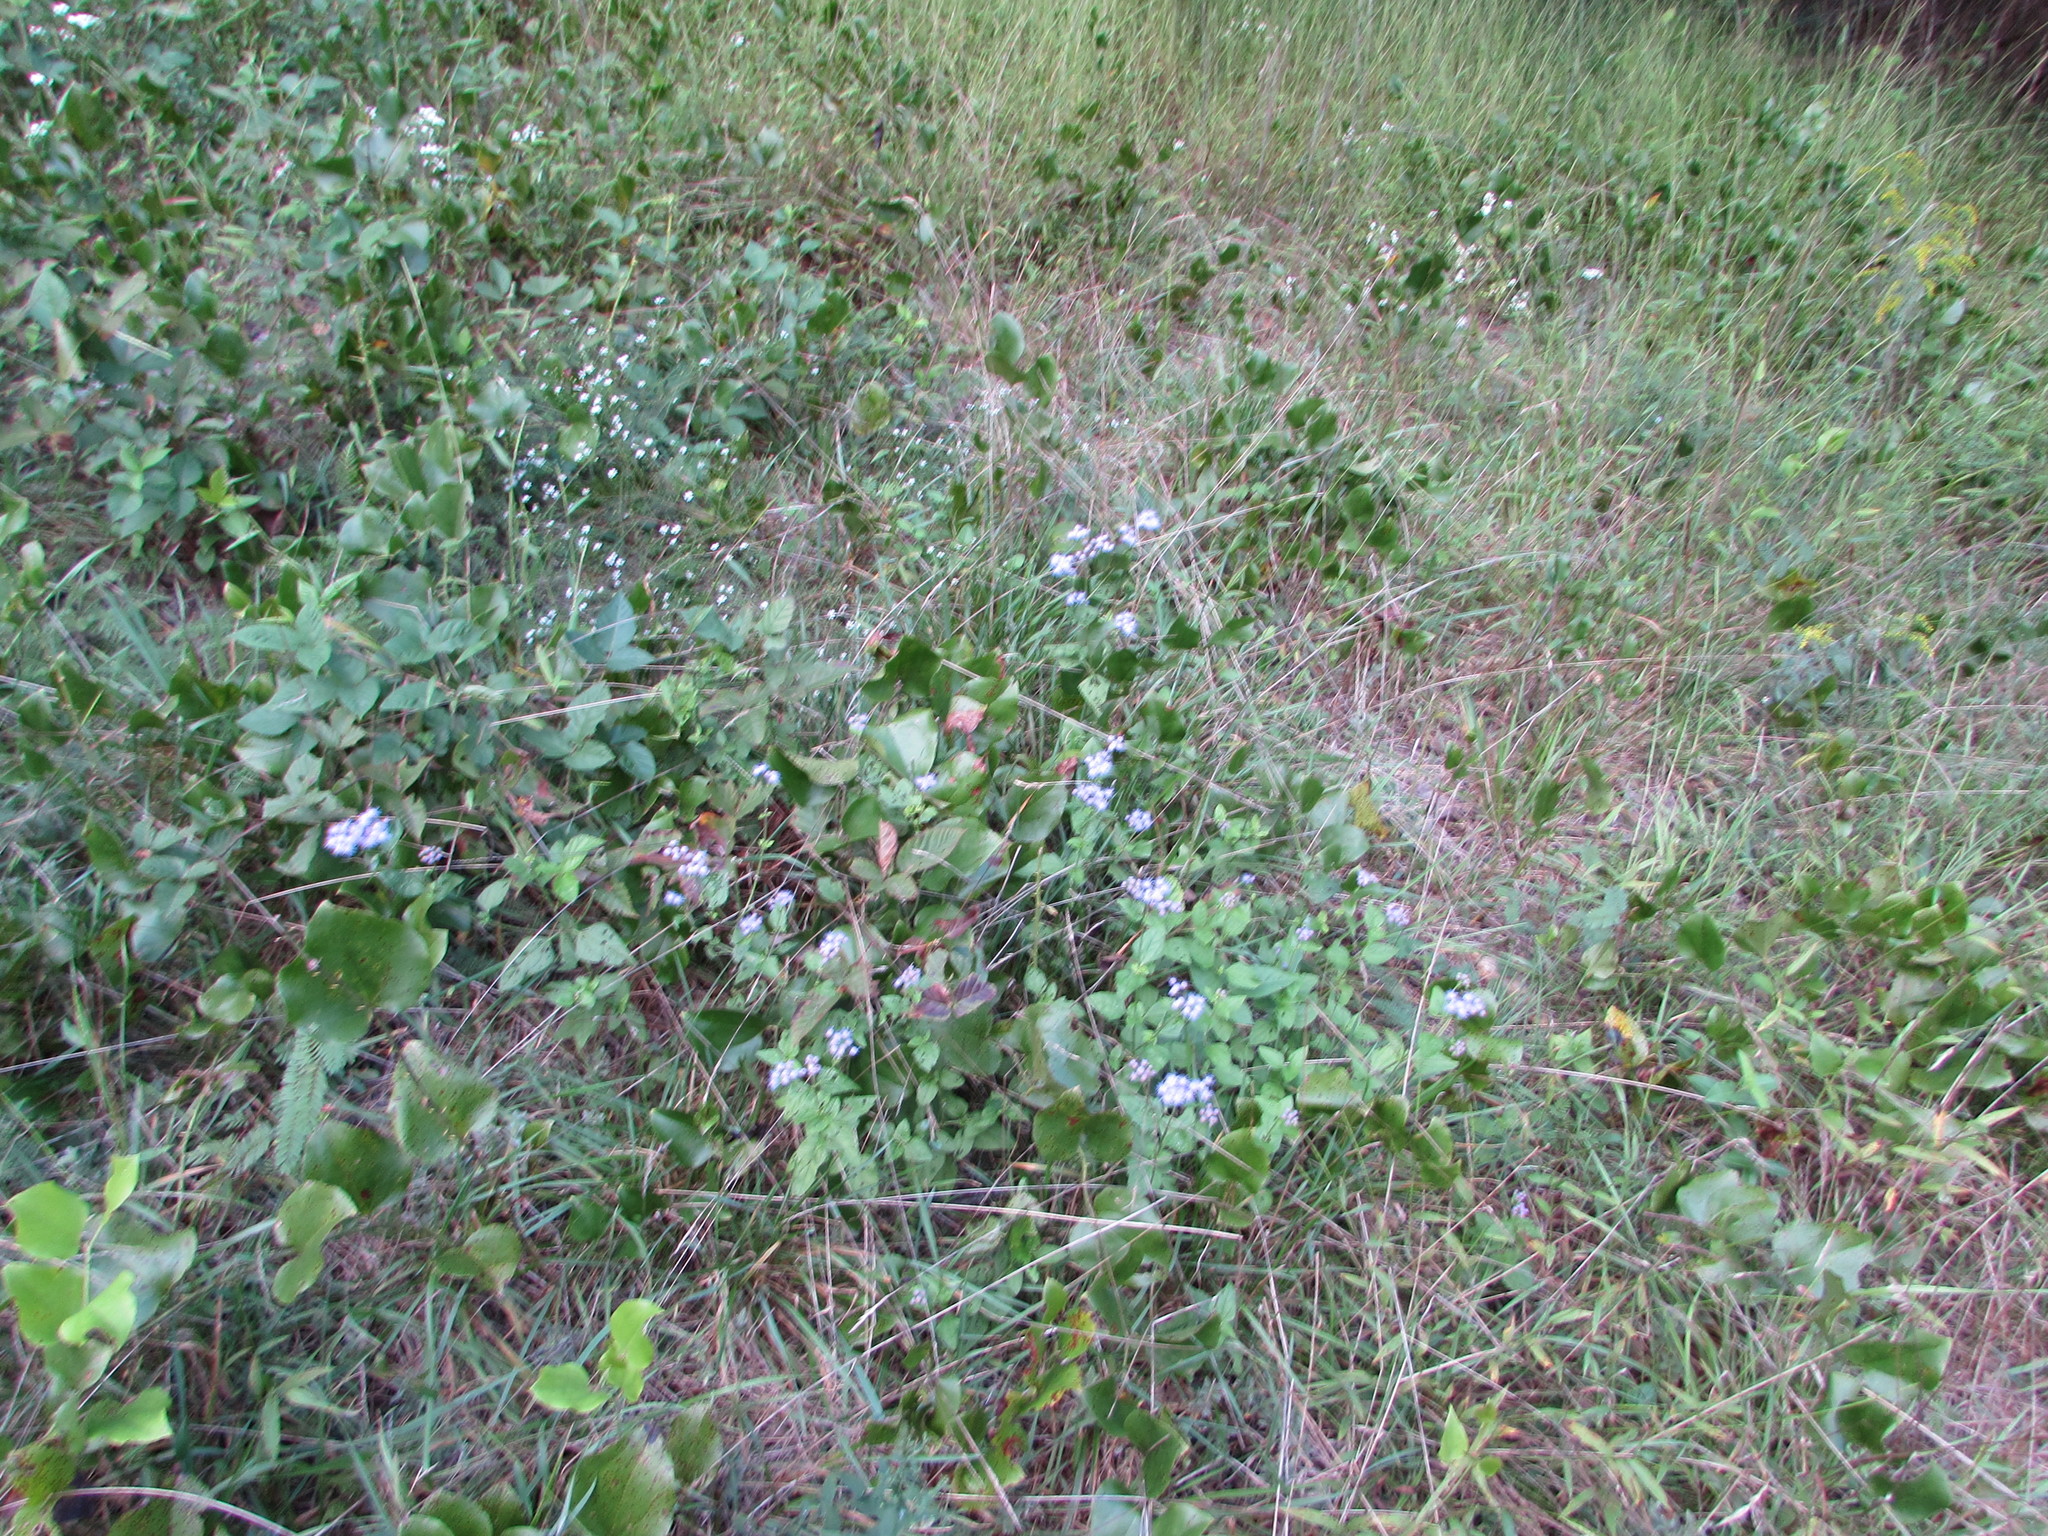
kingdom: Plantae
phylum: Tracheophyta
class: Magnoliopsida
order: Asterales
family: Asteraceae
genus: Conoclinium
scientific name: Conoclinium coelestinum
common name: Blue mistflower
